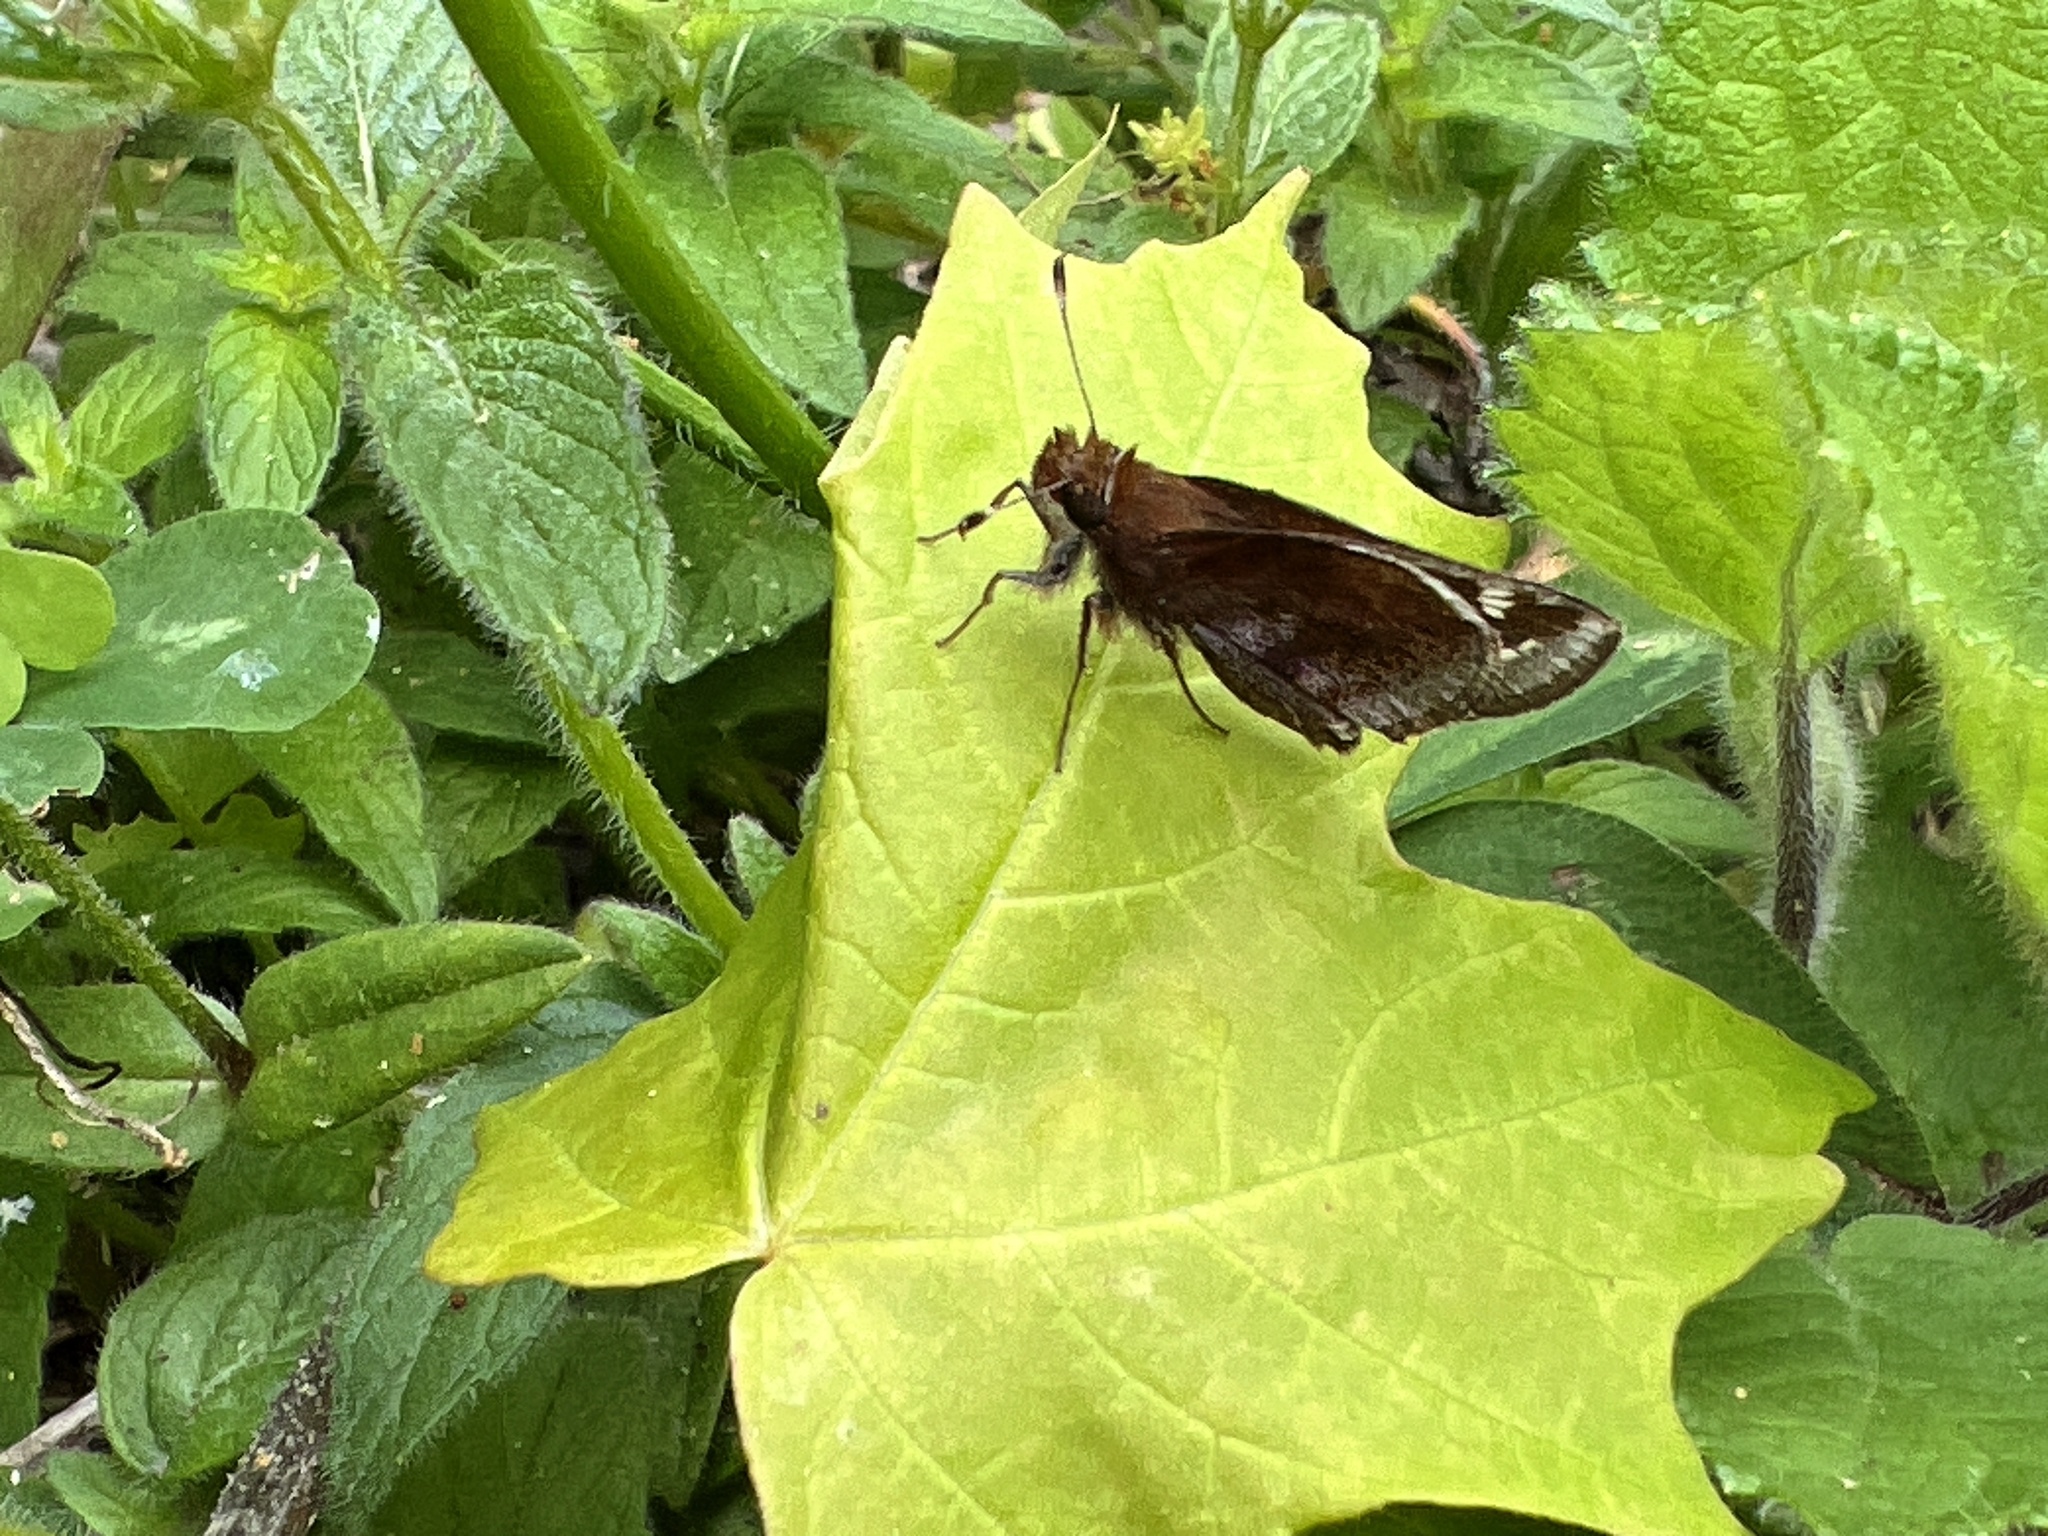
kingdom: Animalia
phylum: Arthropoda
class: Insecta
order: Lepidoptera
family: Hesperiidae
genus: Lon
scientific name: Lon zabulon
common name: Zabulon skipper
